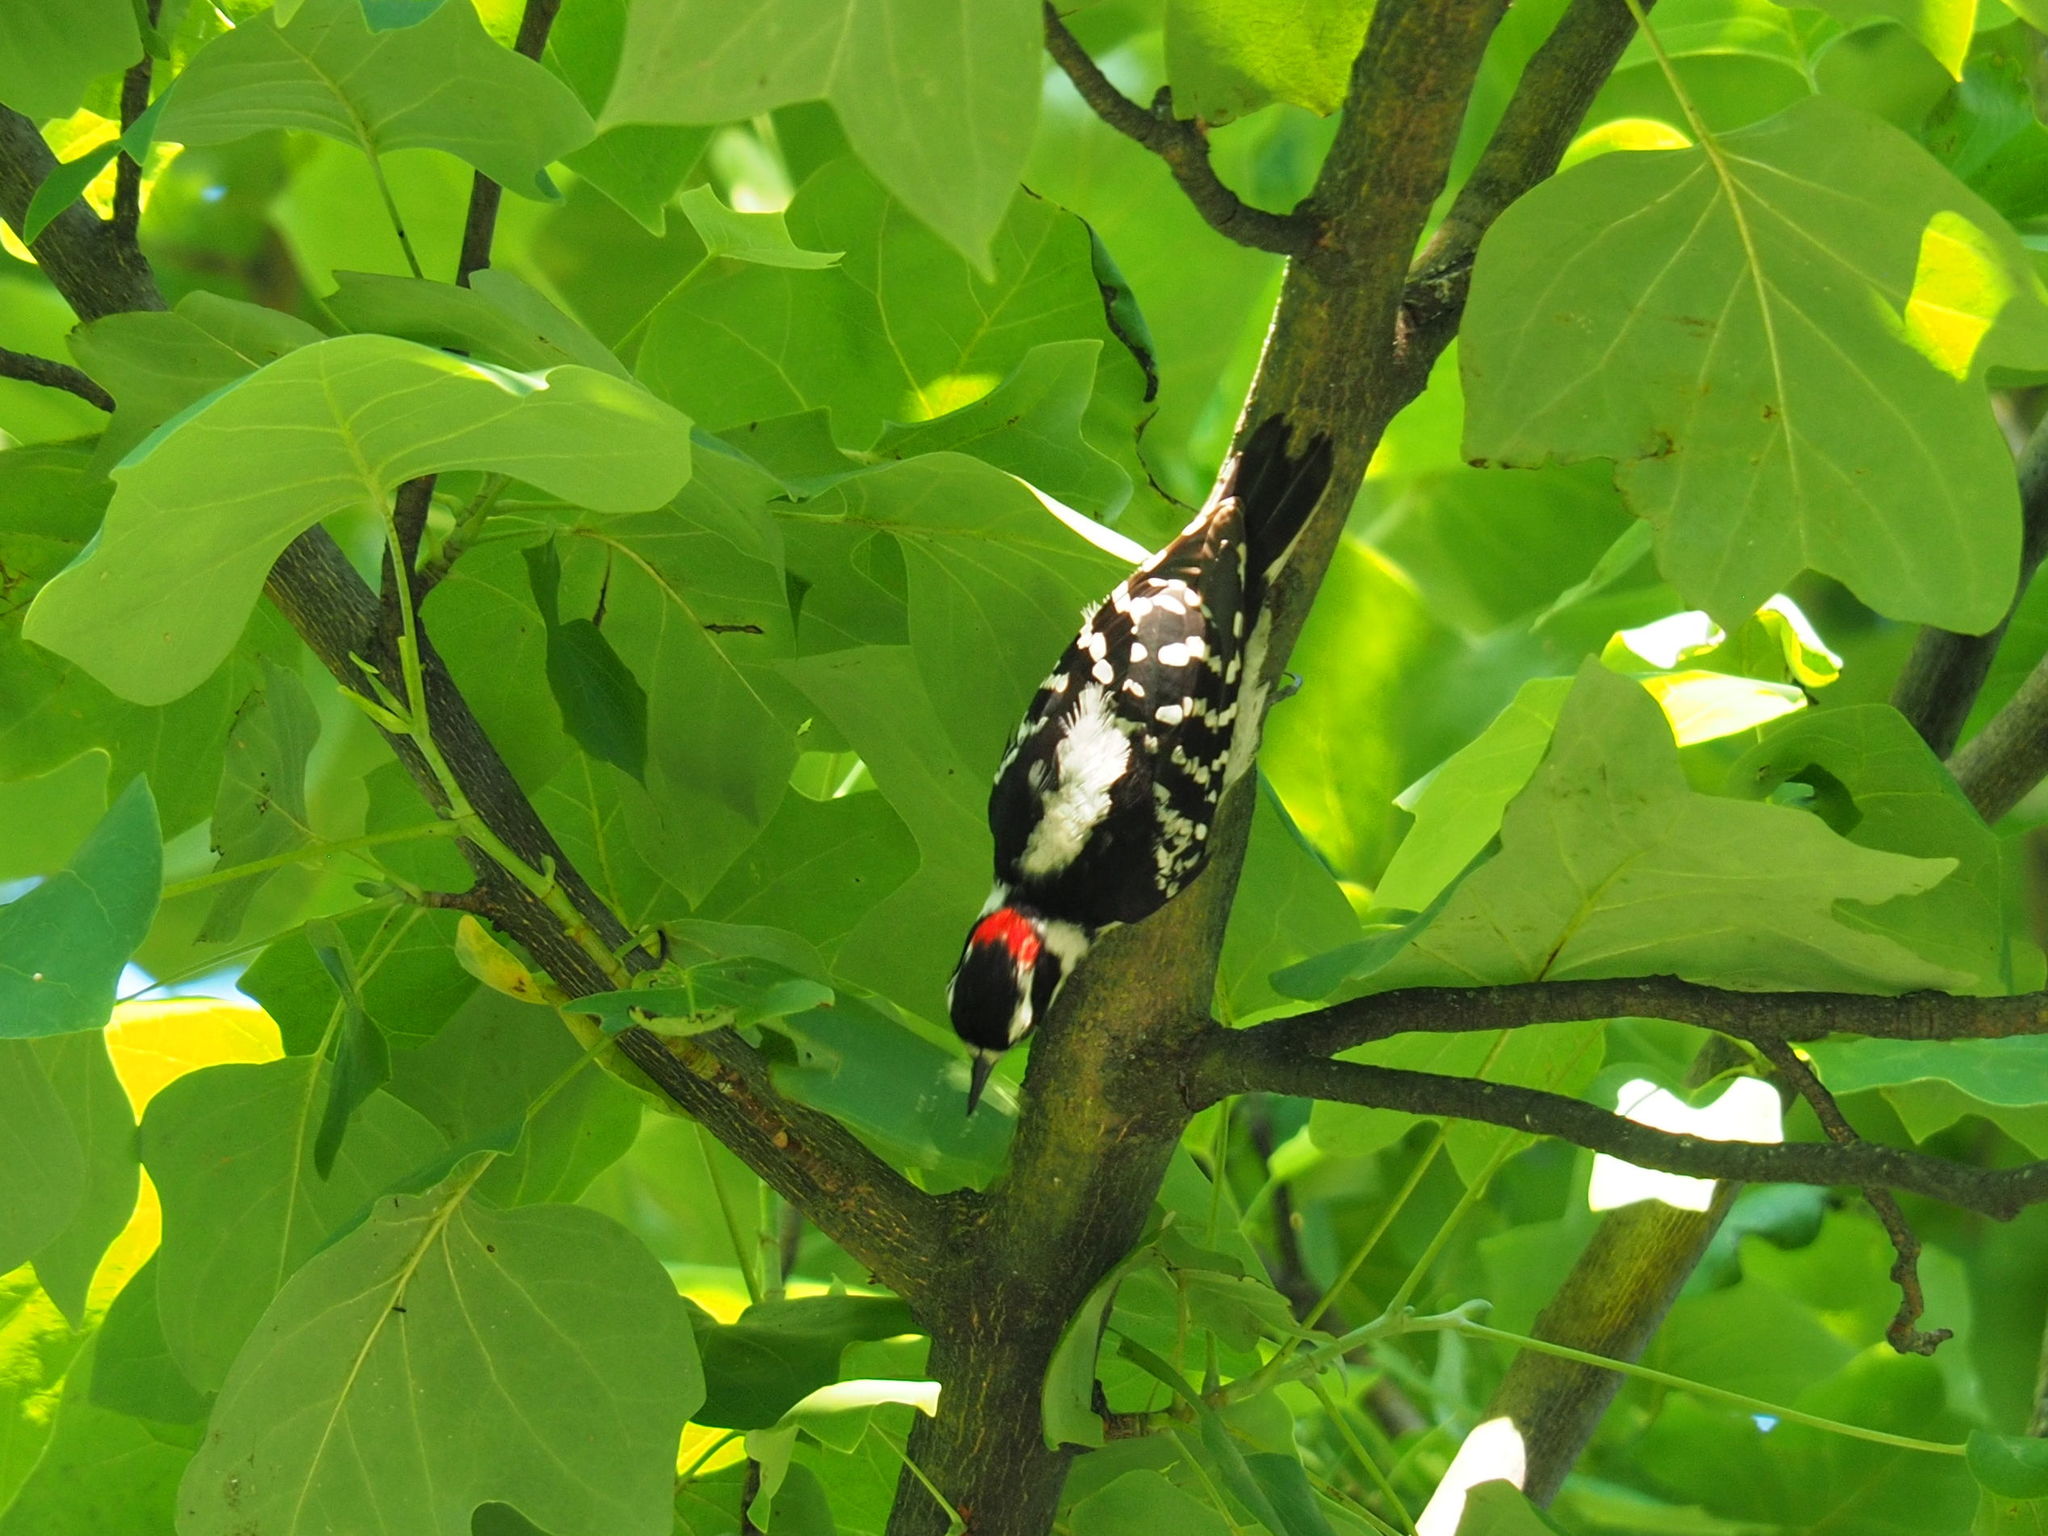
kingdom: Animalia
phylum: Chordata
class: Aves
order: Piciformes
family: Picidae
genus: Dryobates
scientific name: Dryobates pubescens
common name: Downy woodpecker
